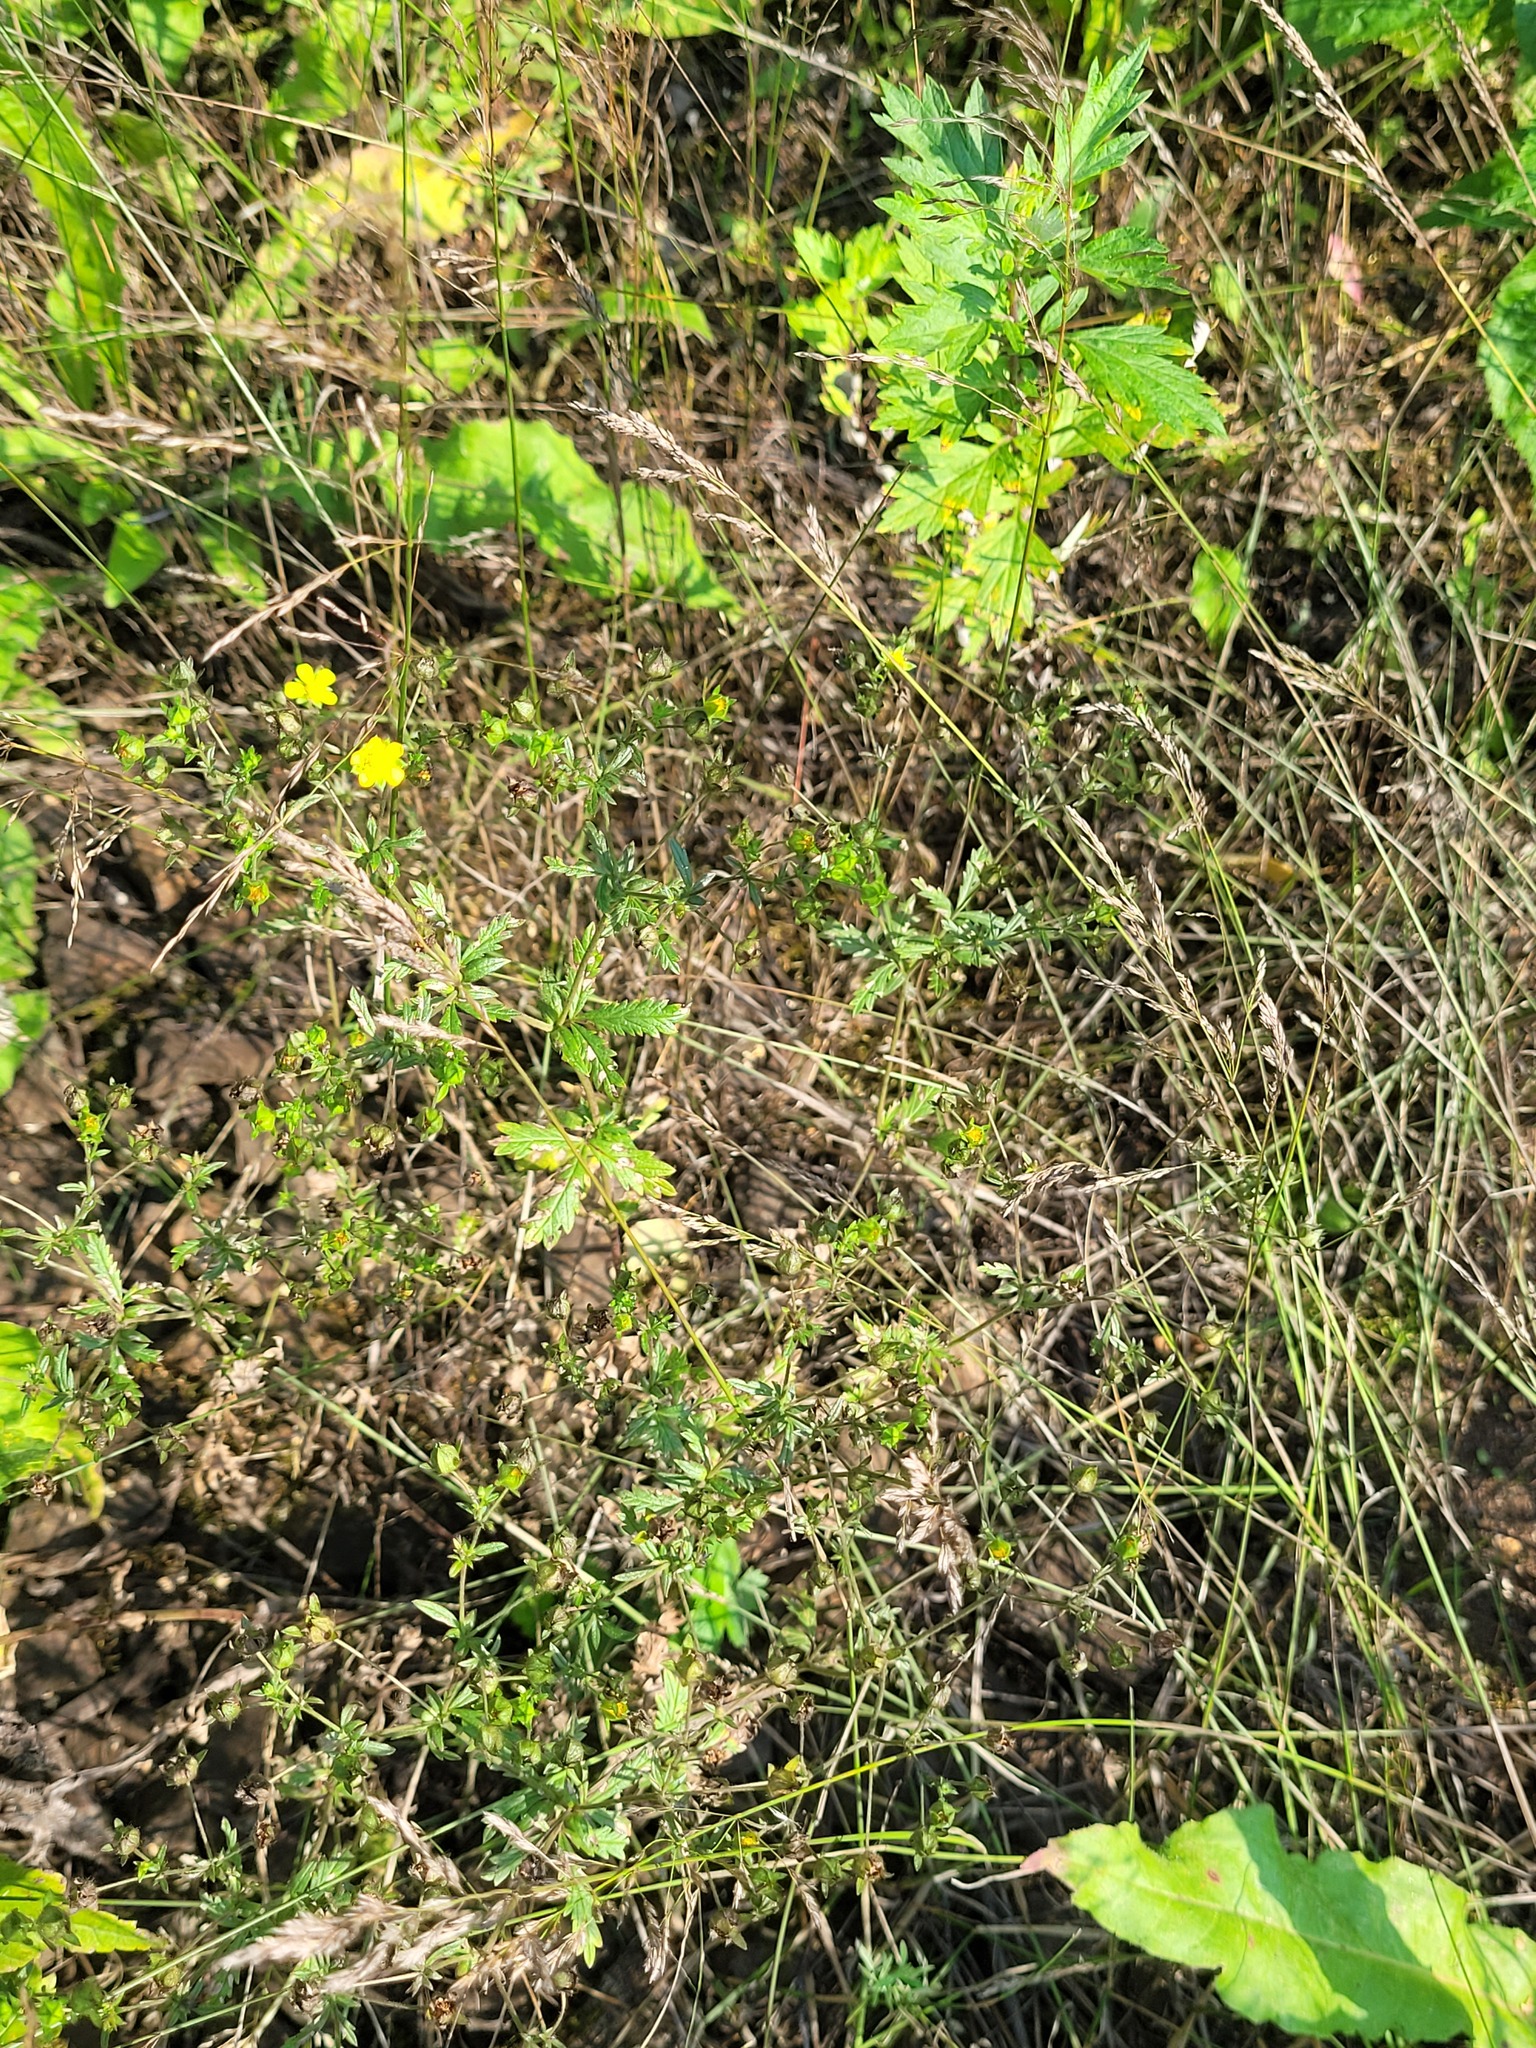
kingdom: Plantae
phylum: Tracheophyta
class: Magnoliopsida
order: Rosales
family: Rosaceae
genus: Potentilla
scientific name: Potentilla intermedia
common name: Downy cinquefoil
